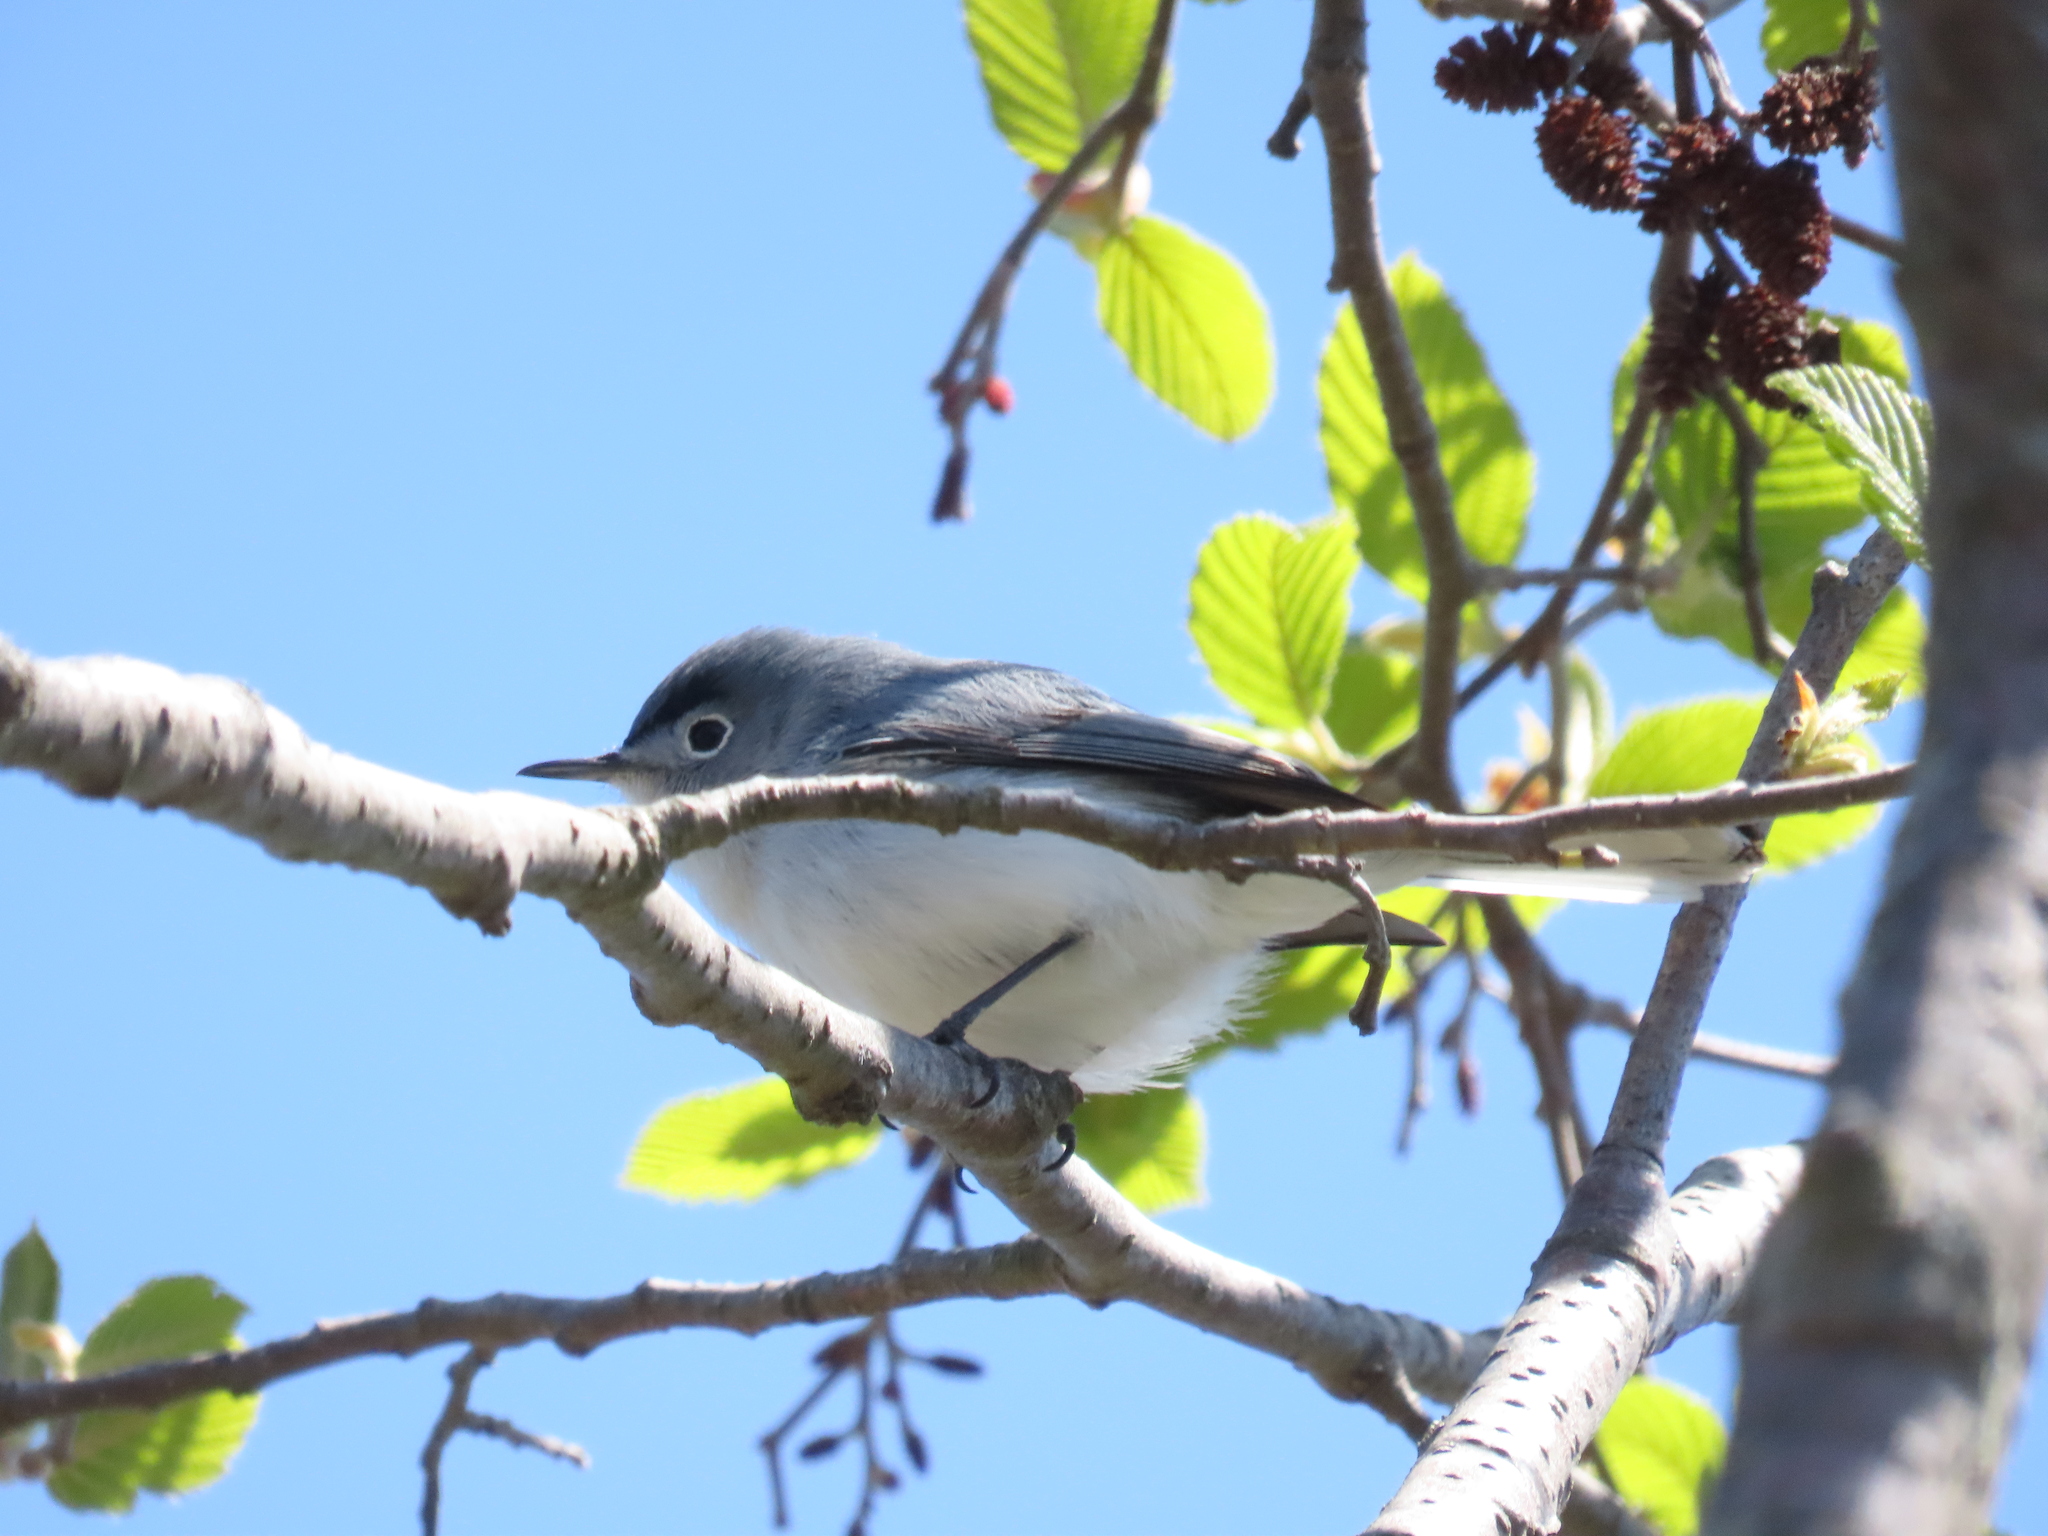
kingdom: Animalia
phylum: Chordata
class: Aves
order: Passeriformes
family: Polioptilidae
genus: Polioptila
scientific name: Polioptila caerulea
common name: Blue-gray gnatcatcher
